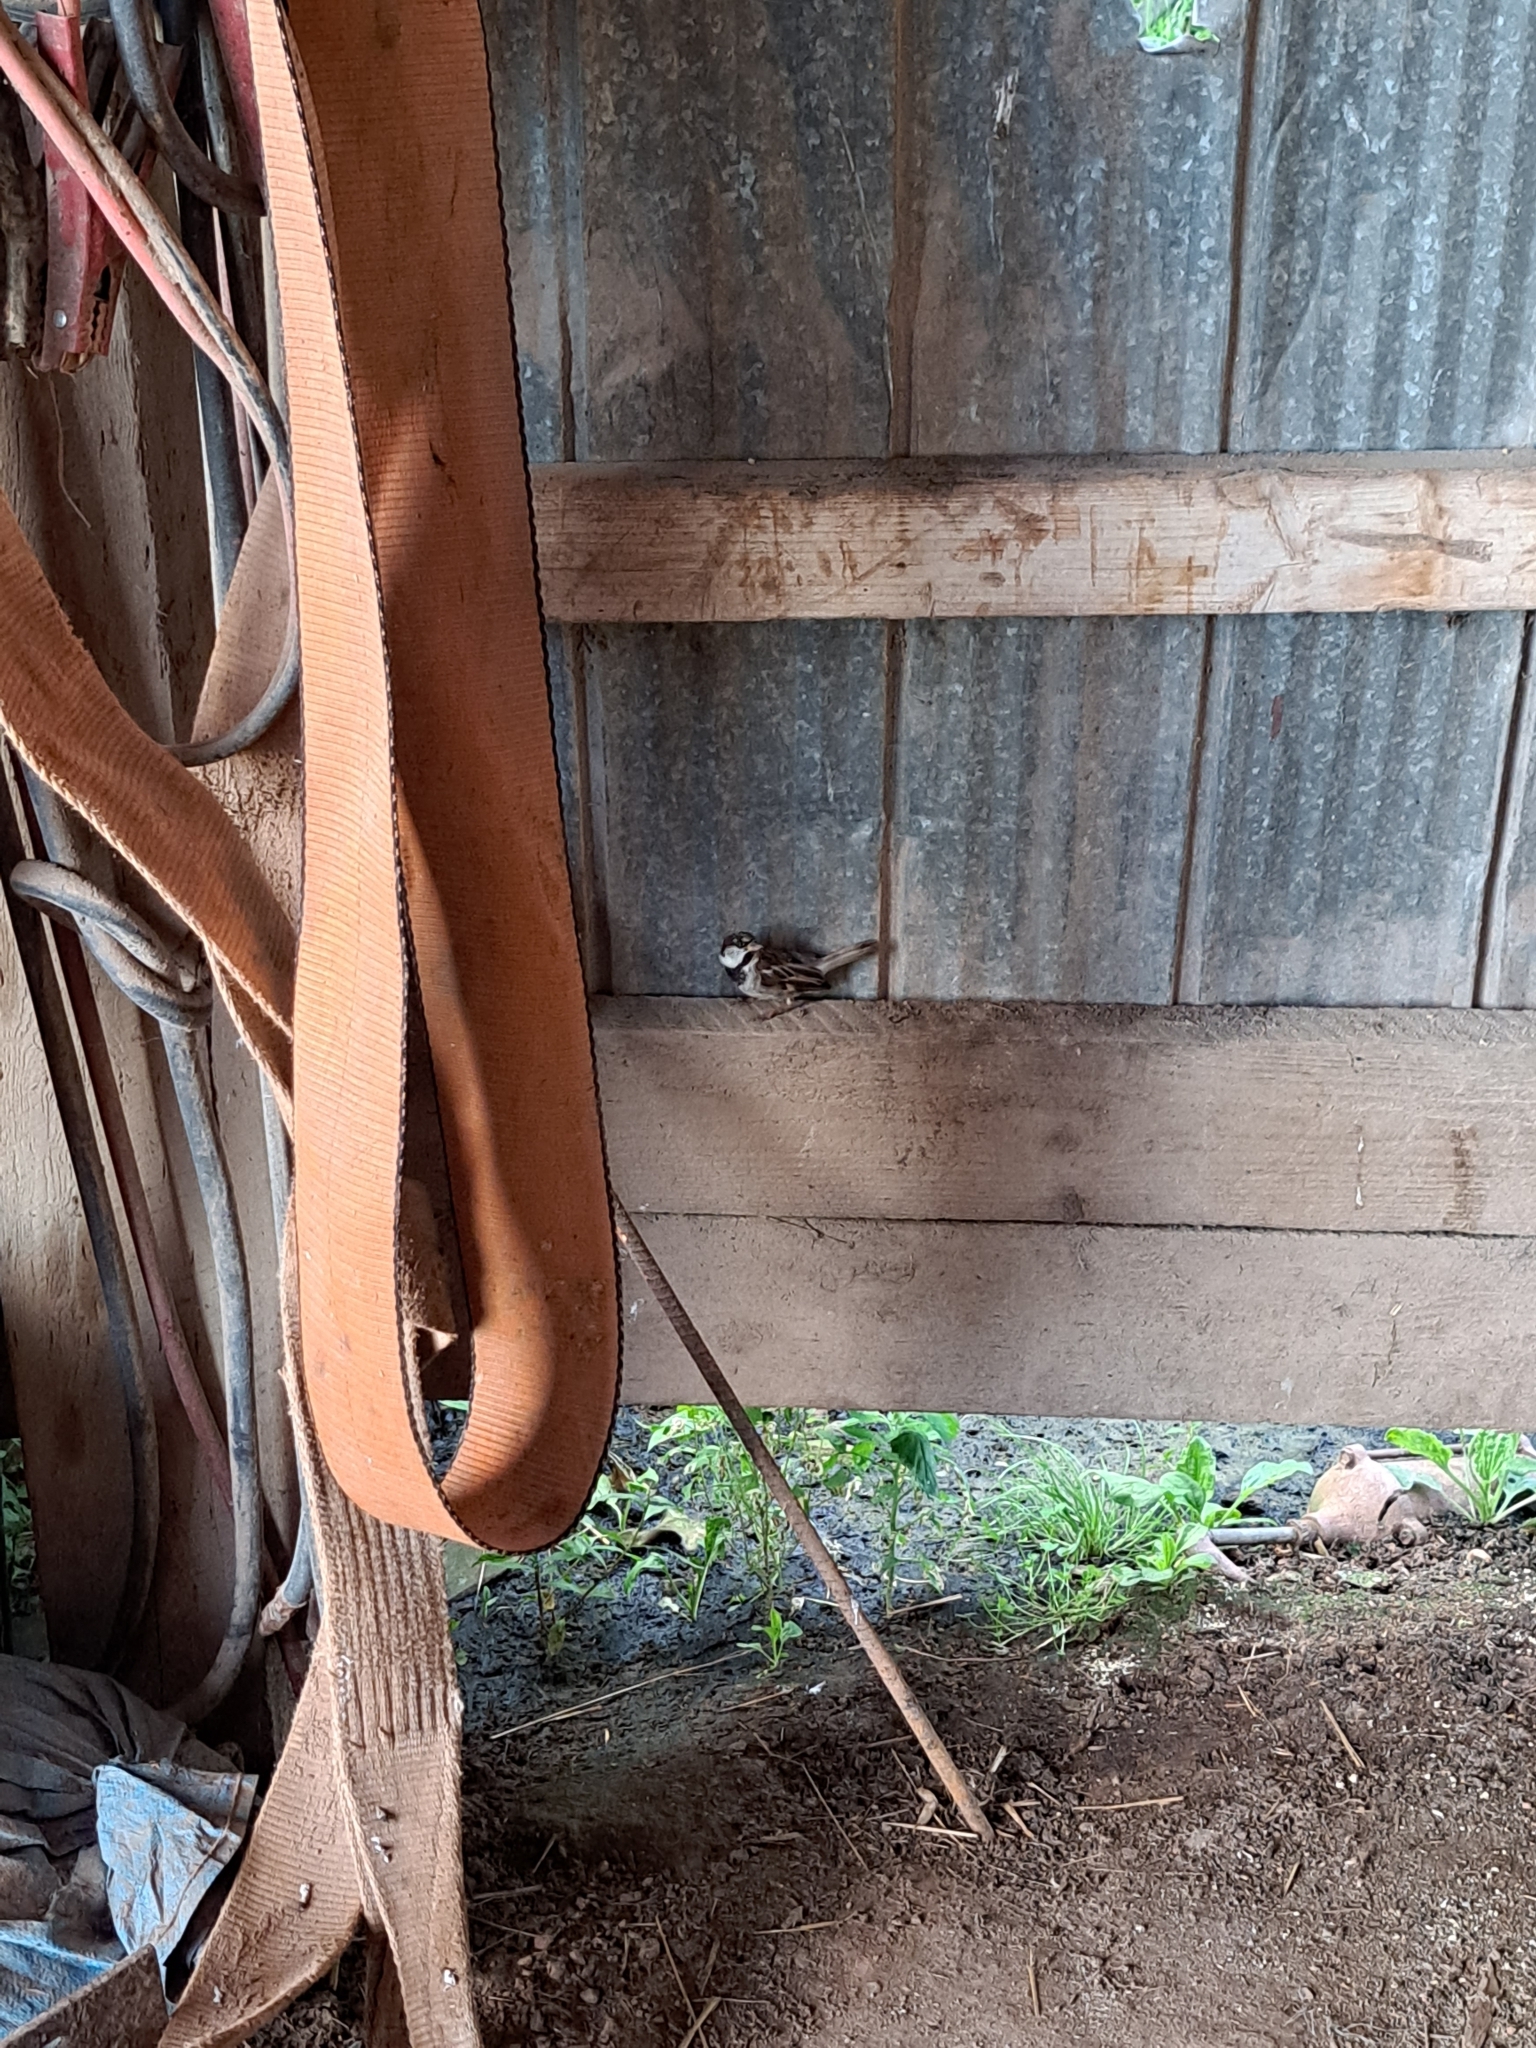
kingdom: Animalia
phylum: Chordata
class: Aves
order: Passeriformes
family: Passeridae
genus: Passer
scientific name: Passer domesticus
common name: House sparrow
